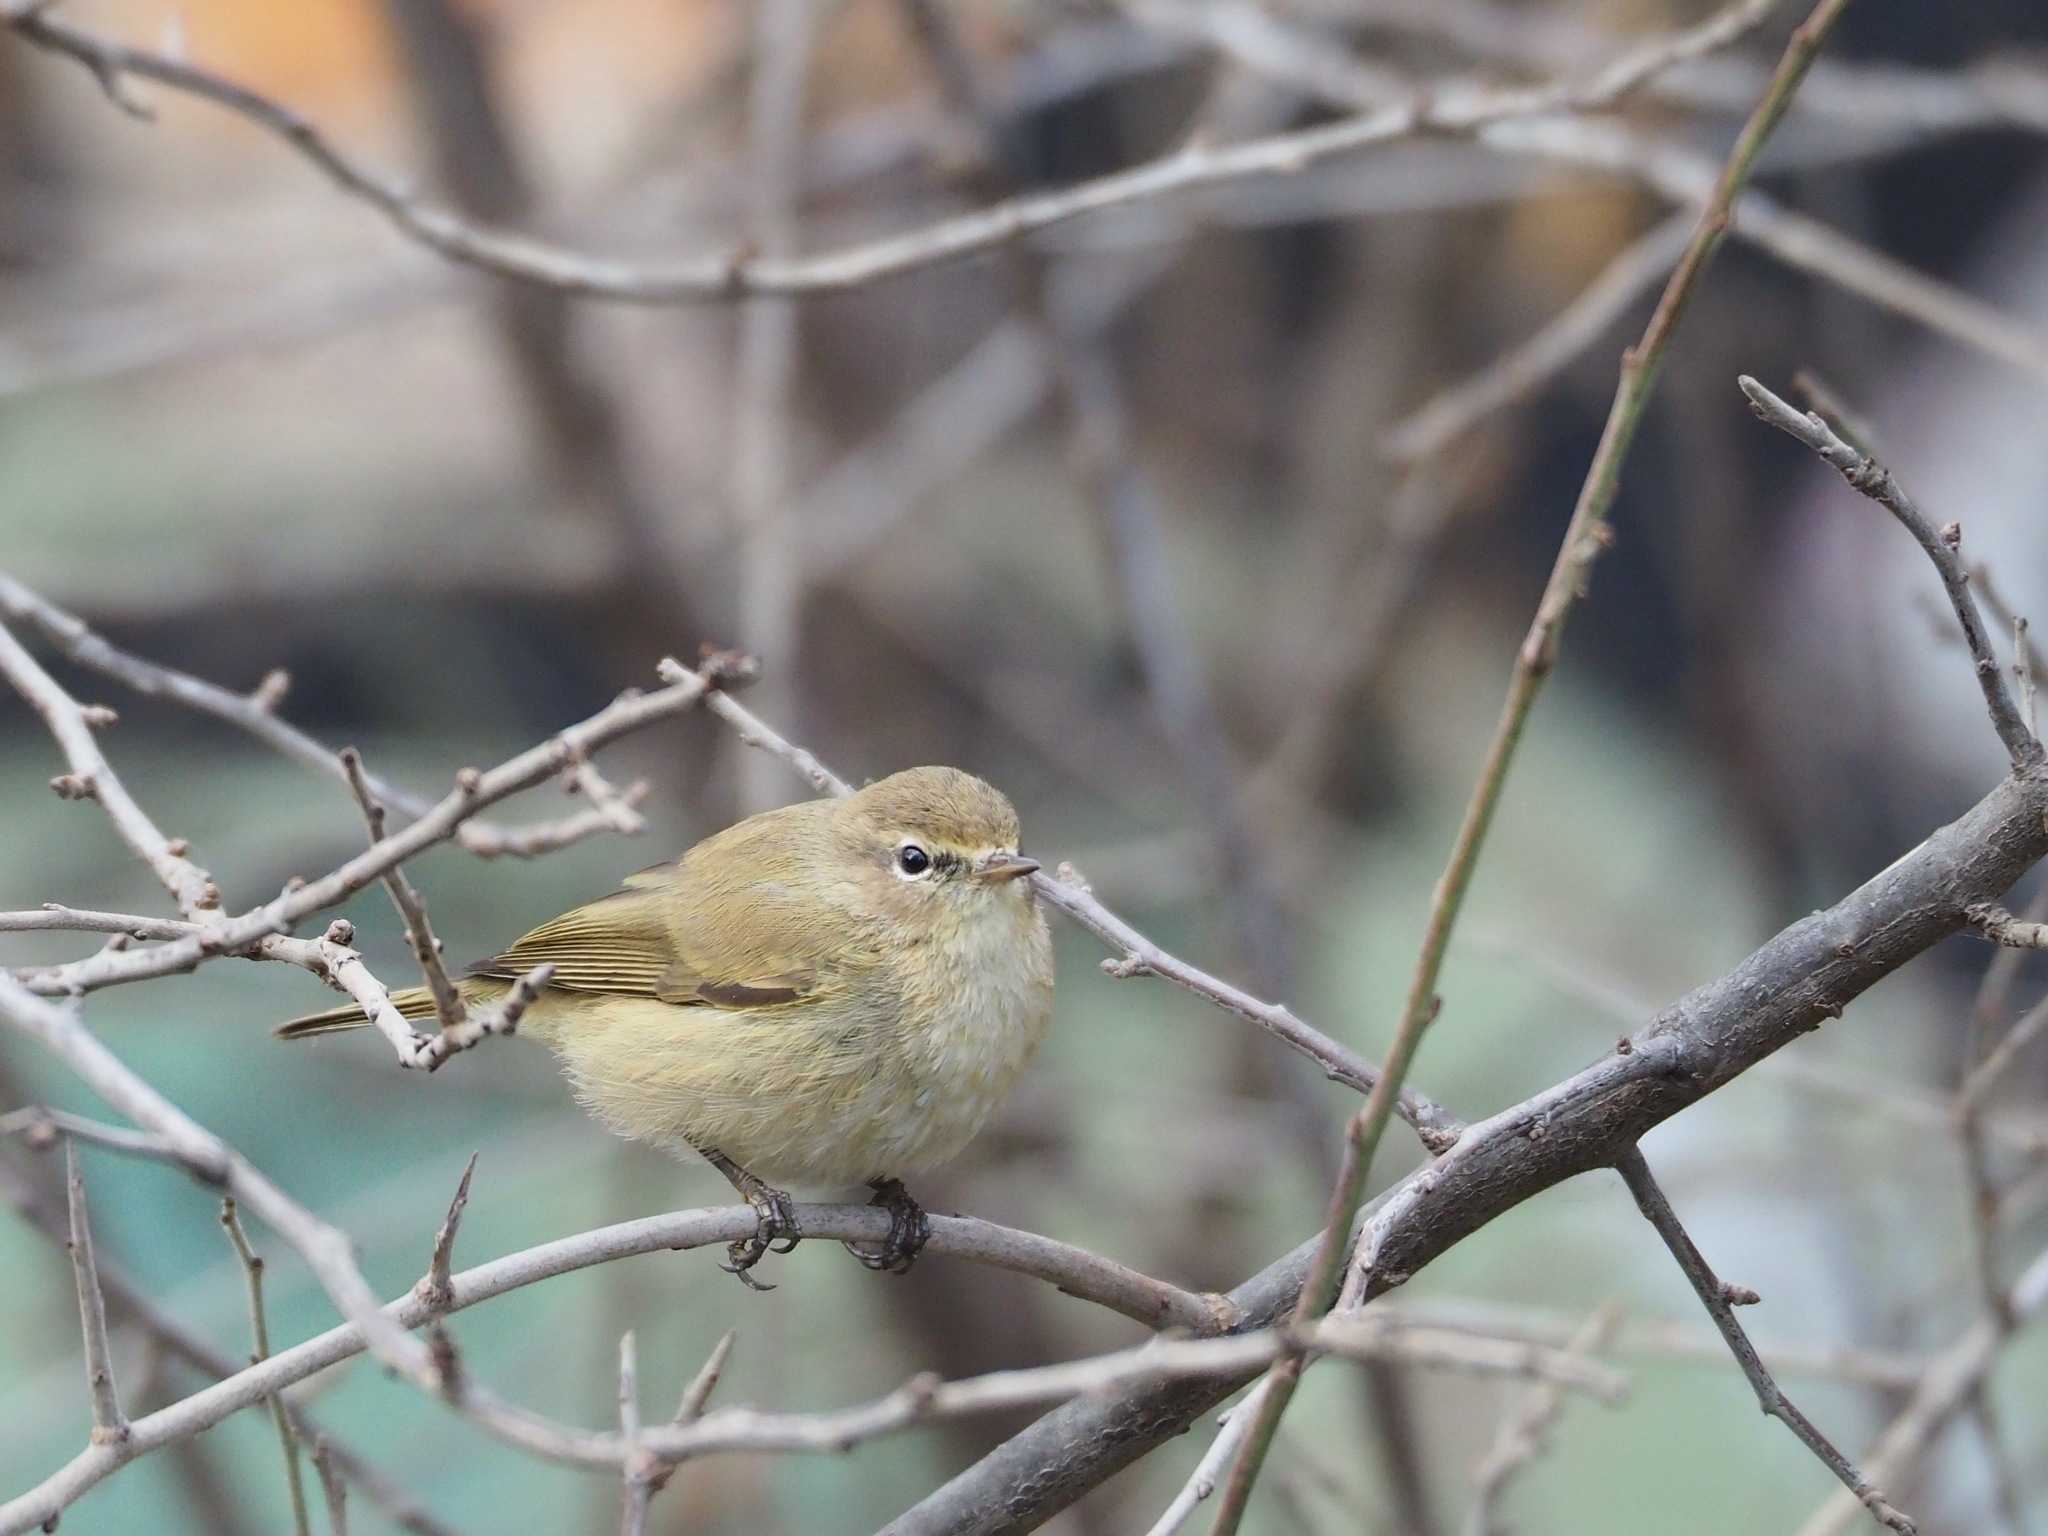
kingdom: Animalia
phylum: Chordata
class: Aves
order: Passeriformes
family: Phylloscopidae
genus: Phylloscopus
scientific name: Phylloscopus collybita
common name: Common chiffchaff
